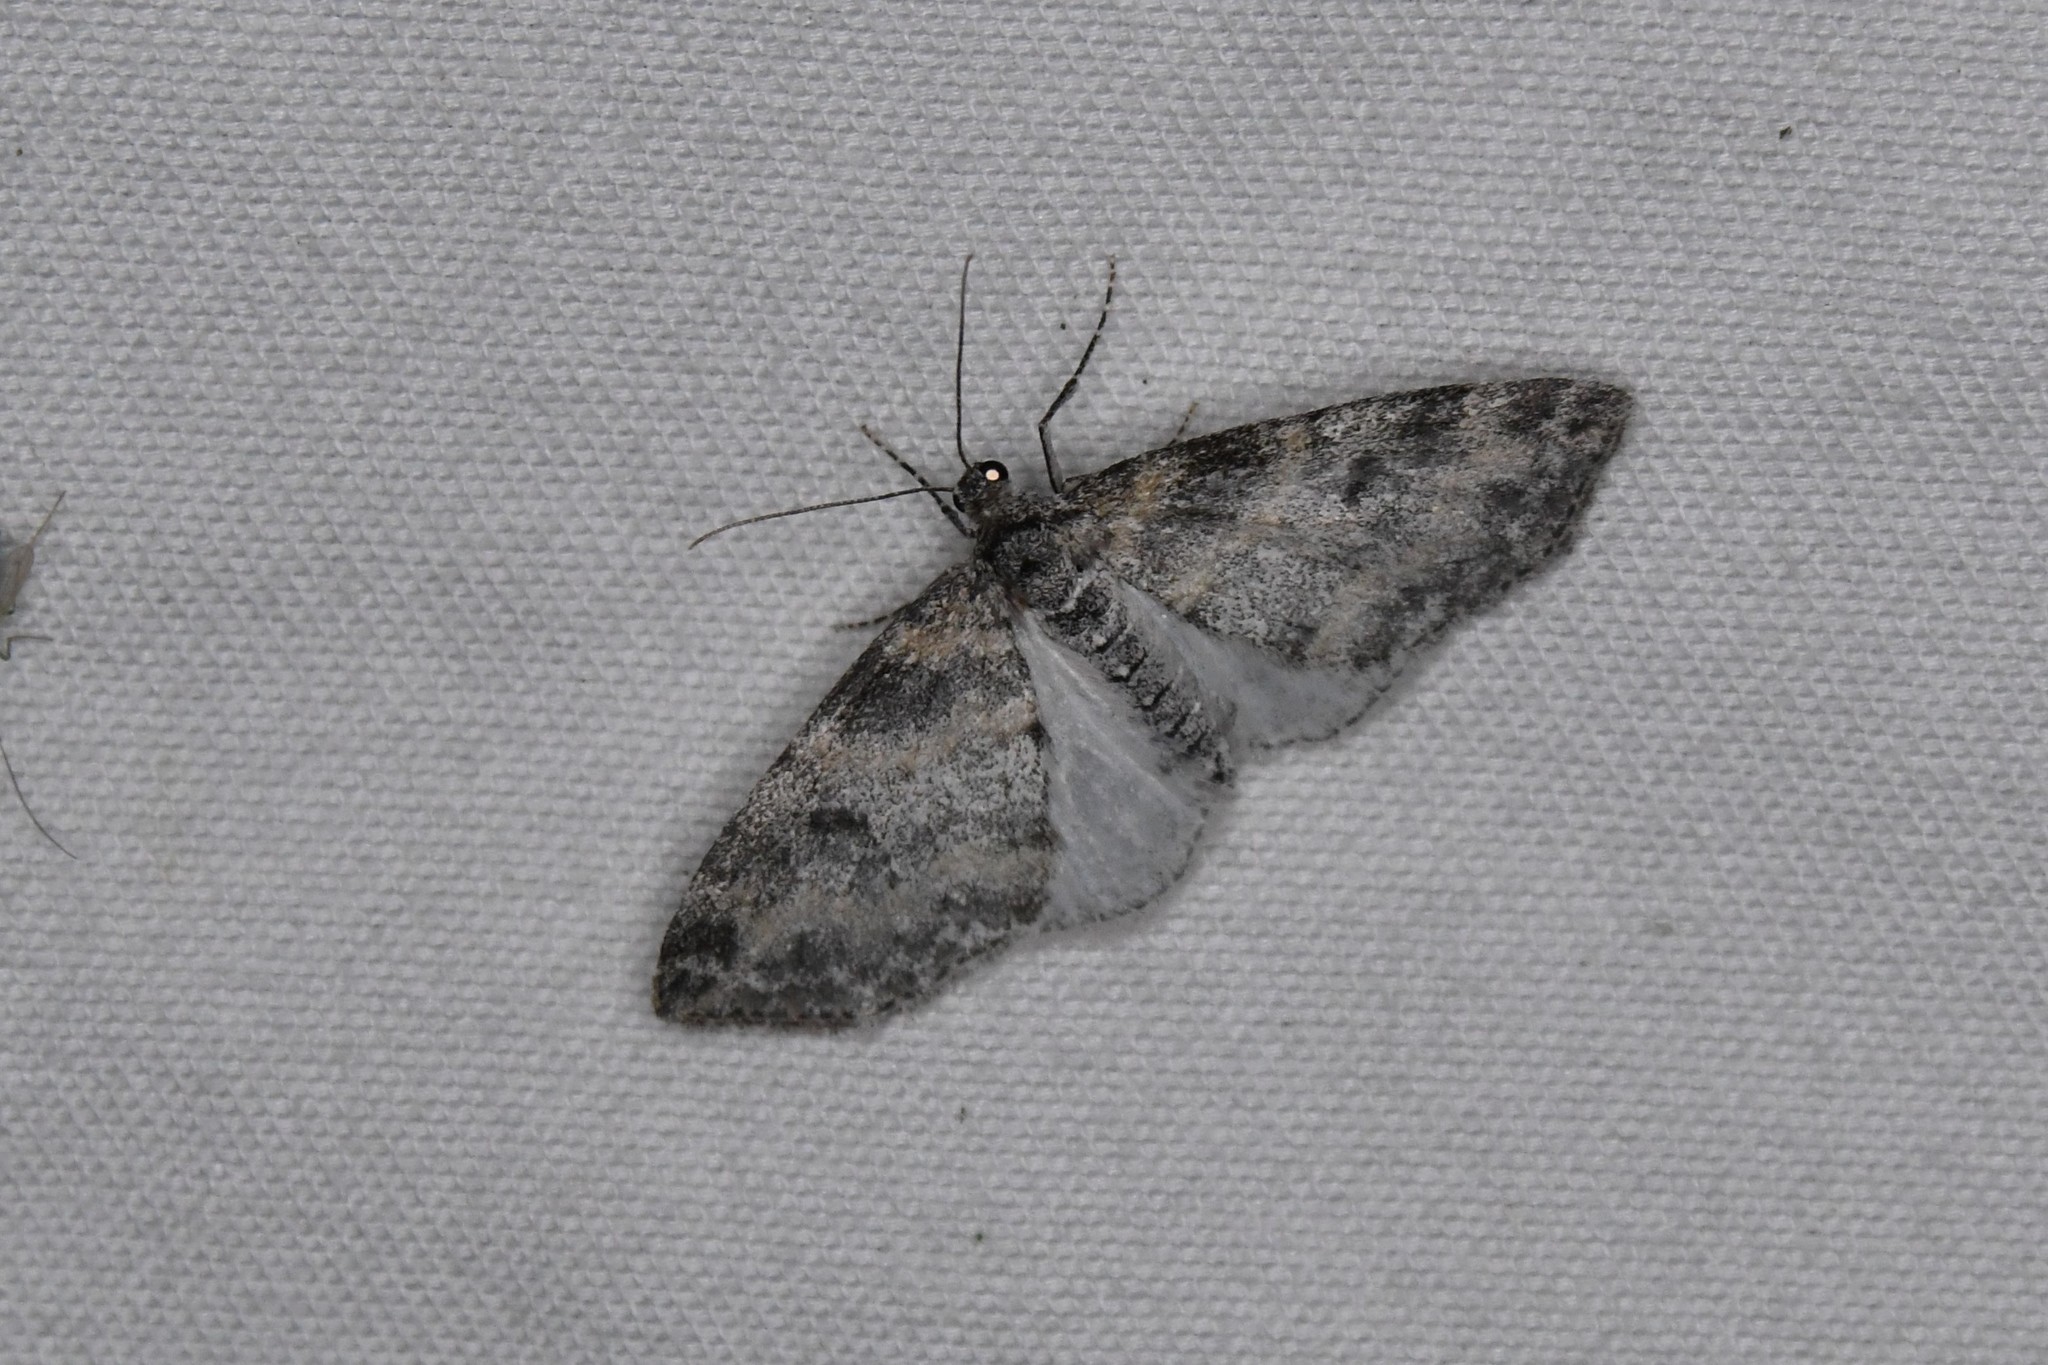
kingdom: Animalia
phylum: Arthropoda
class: Insecta
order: Lepidoptera
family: Geometridae
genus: Lobophora
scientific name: Lobophora nivigerata
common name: Powdered bigwing
